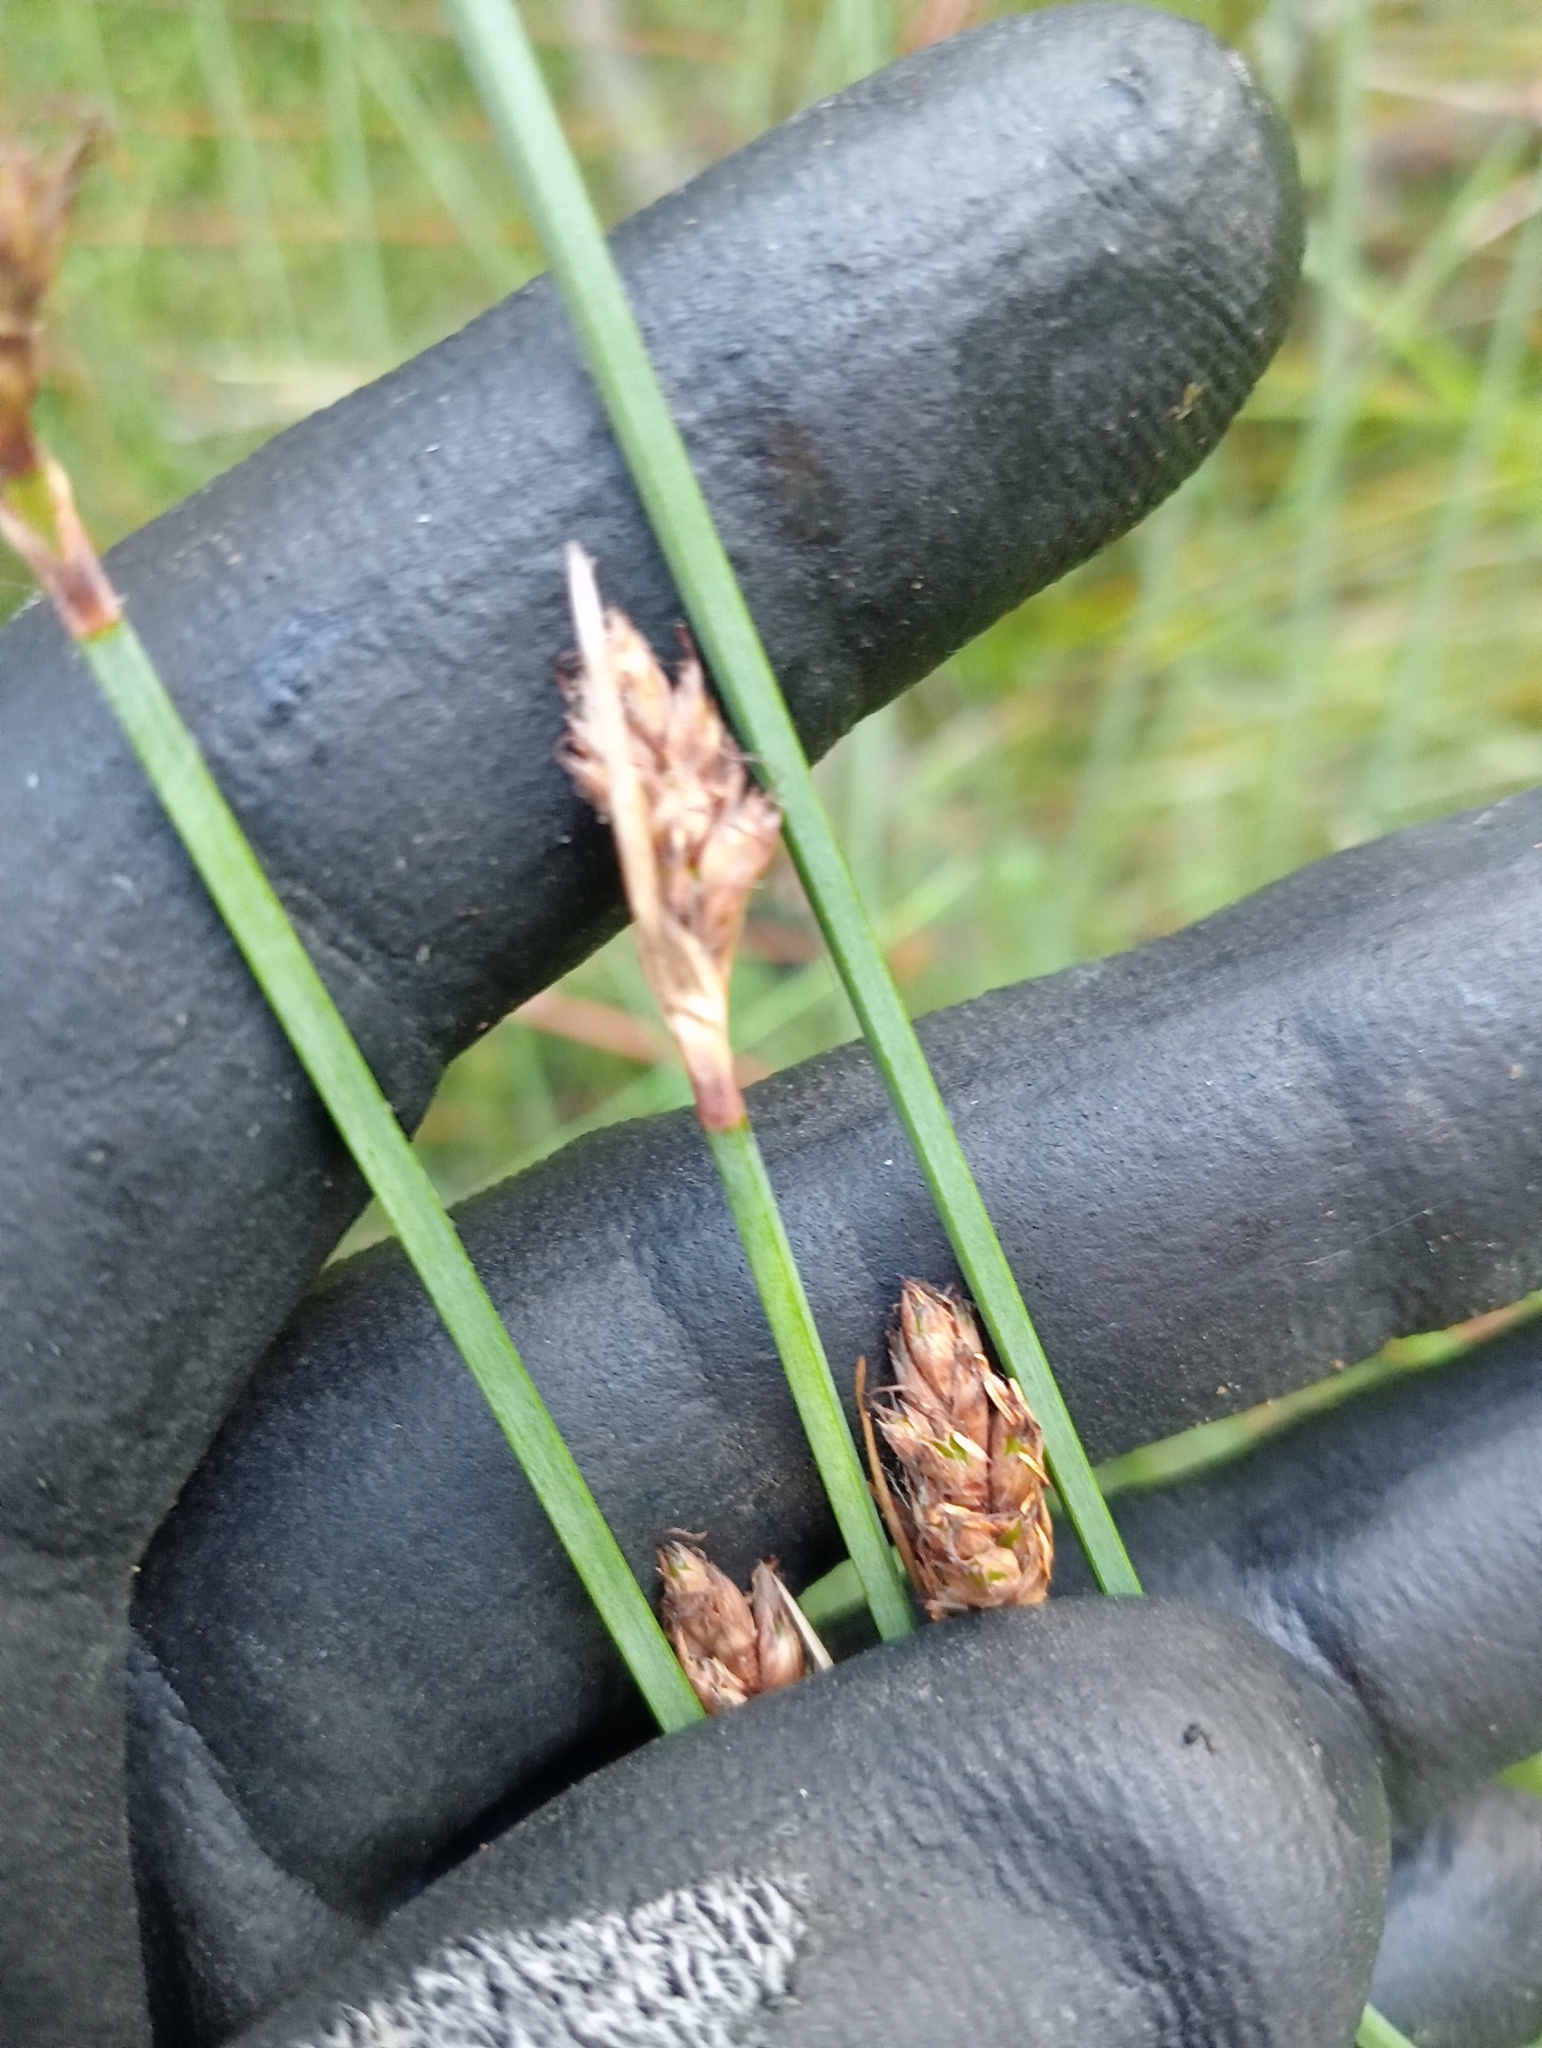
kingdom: Plantae
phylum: Tracheophyta
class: Liliopsida
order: Poales
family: Cyperaceae
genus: Lepidosperma
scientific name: Lepidosperma australe
